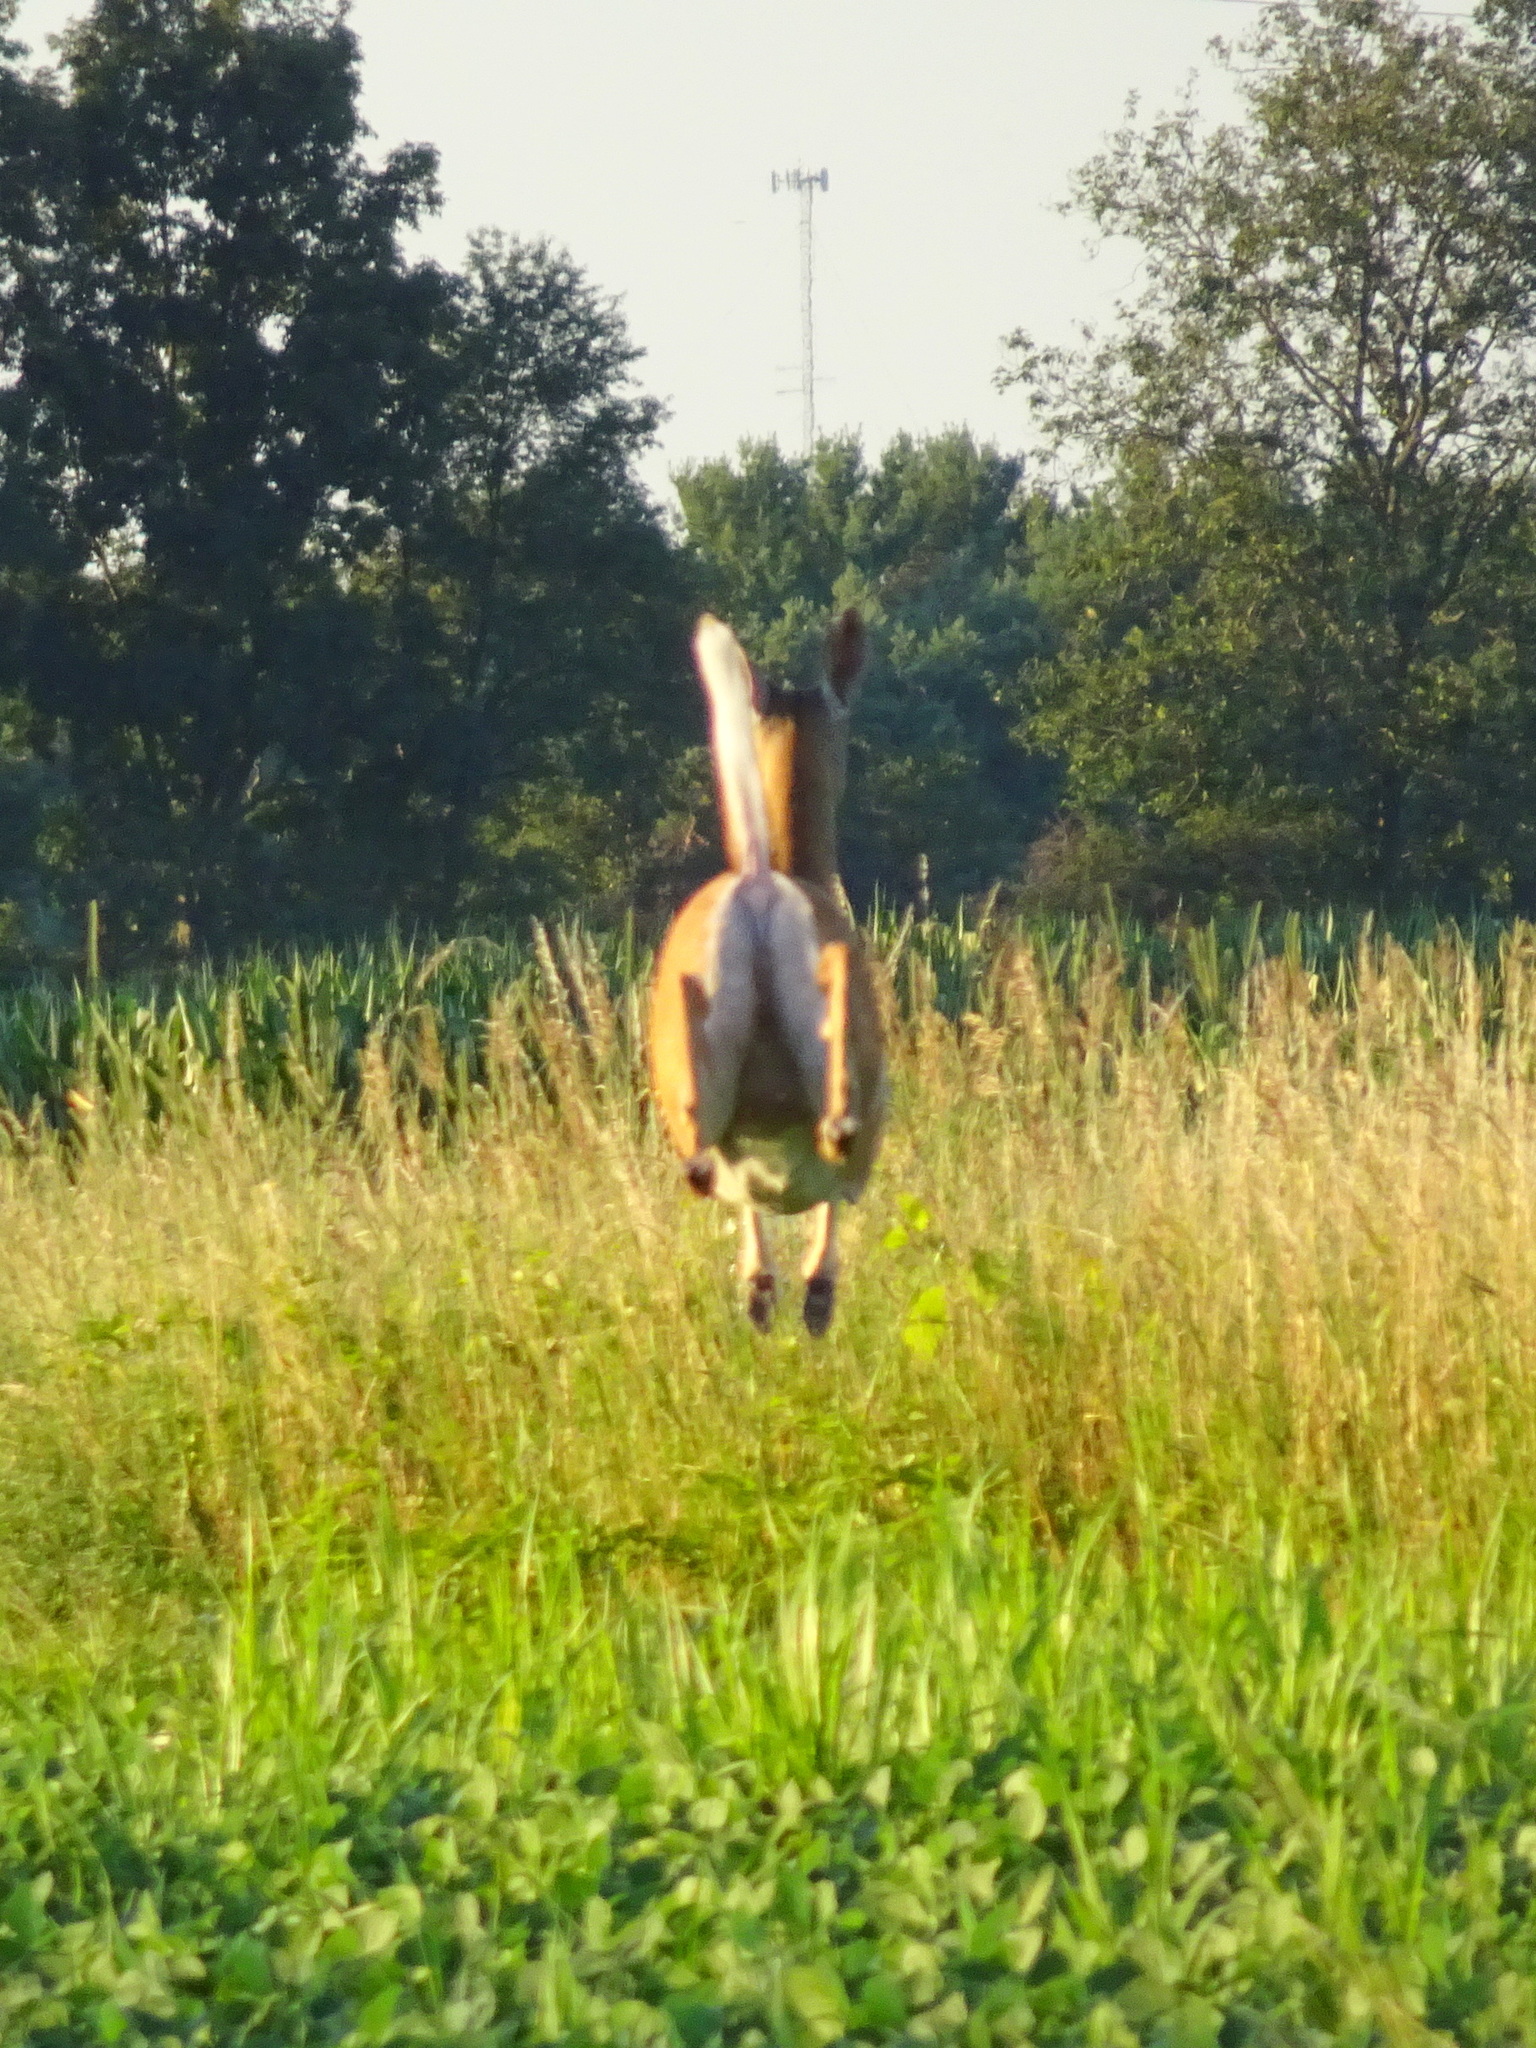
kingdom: Animalia
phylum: Chordata
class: Mammalia
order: Artiodactyla
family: Cervidae
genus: Odocoileus
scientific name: Odocoileus virginianus
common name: White-tailed deer
